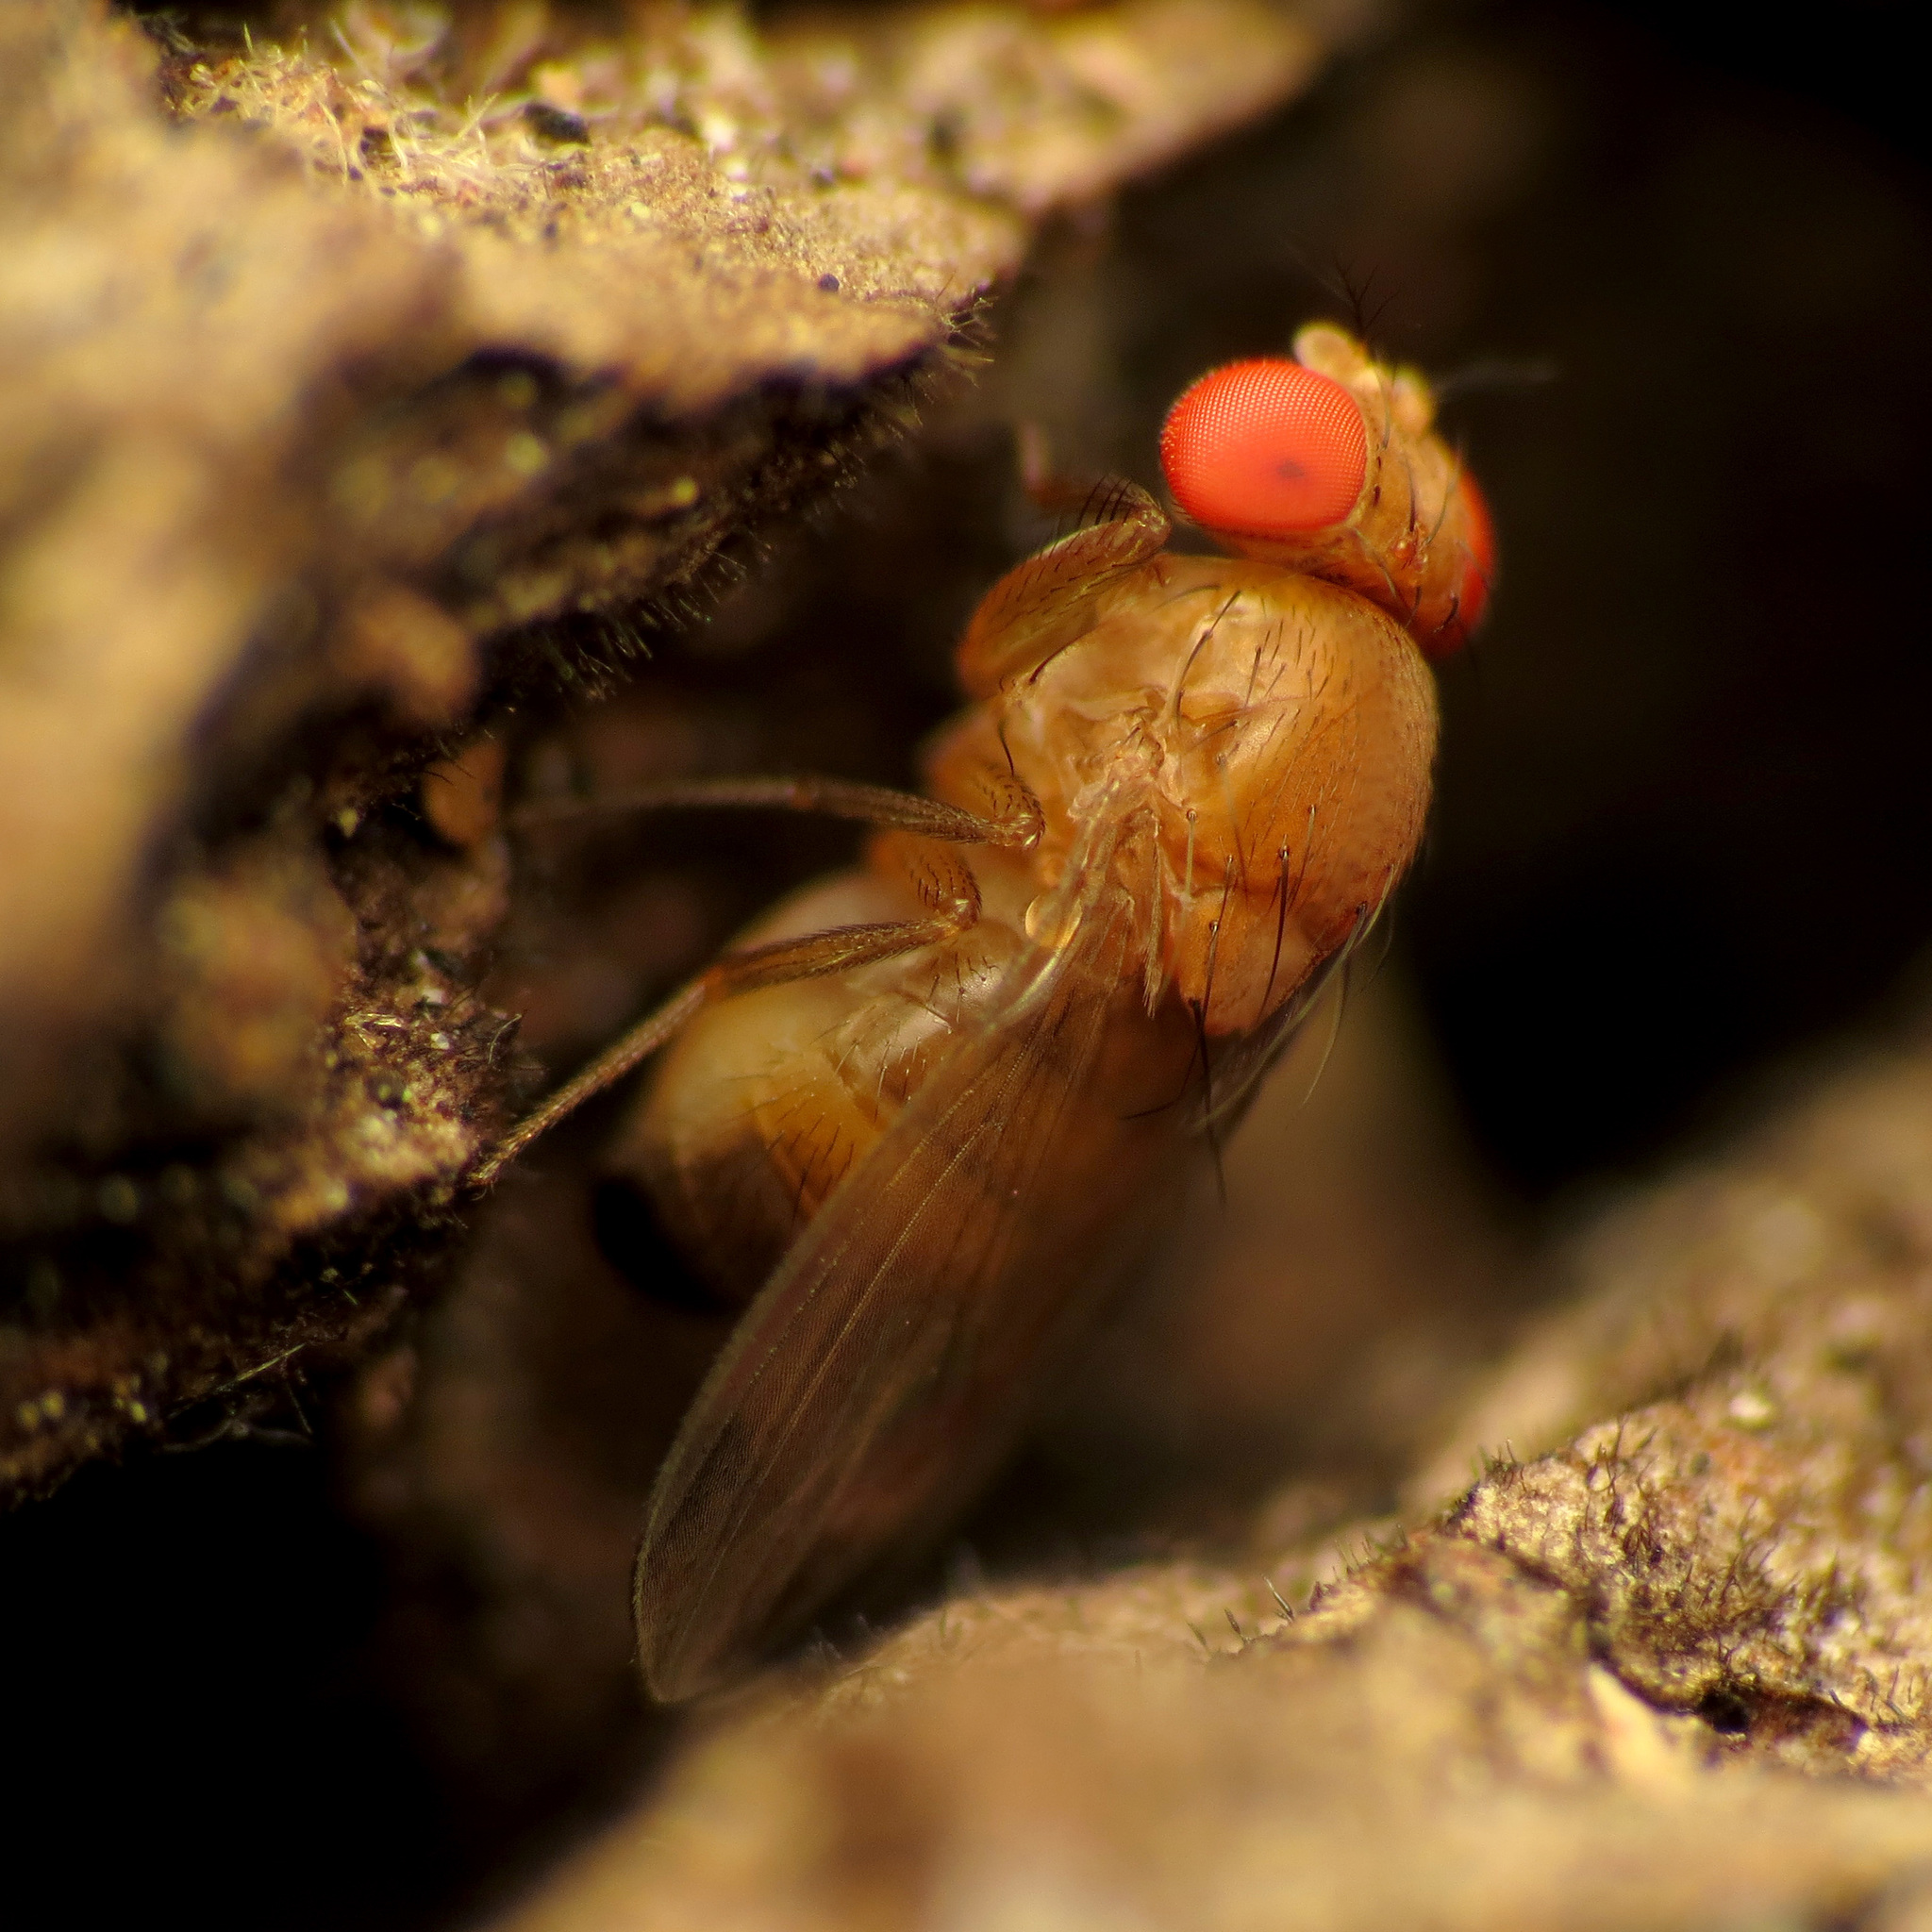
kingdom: Animalia
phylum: Arthropoda
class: Insecta
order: Diptera
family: Drosophilidae
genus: Drosophila
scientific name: Drosophila suzukii
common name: Spotted-wing drosophila
